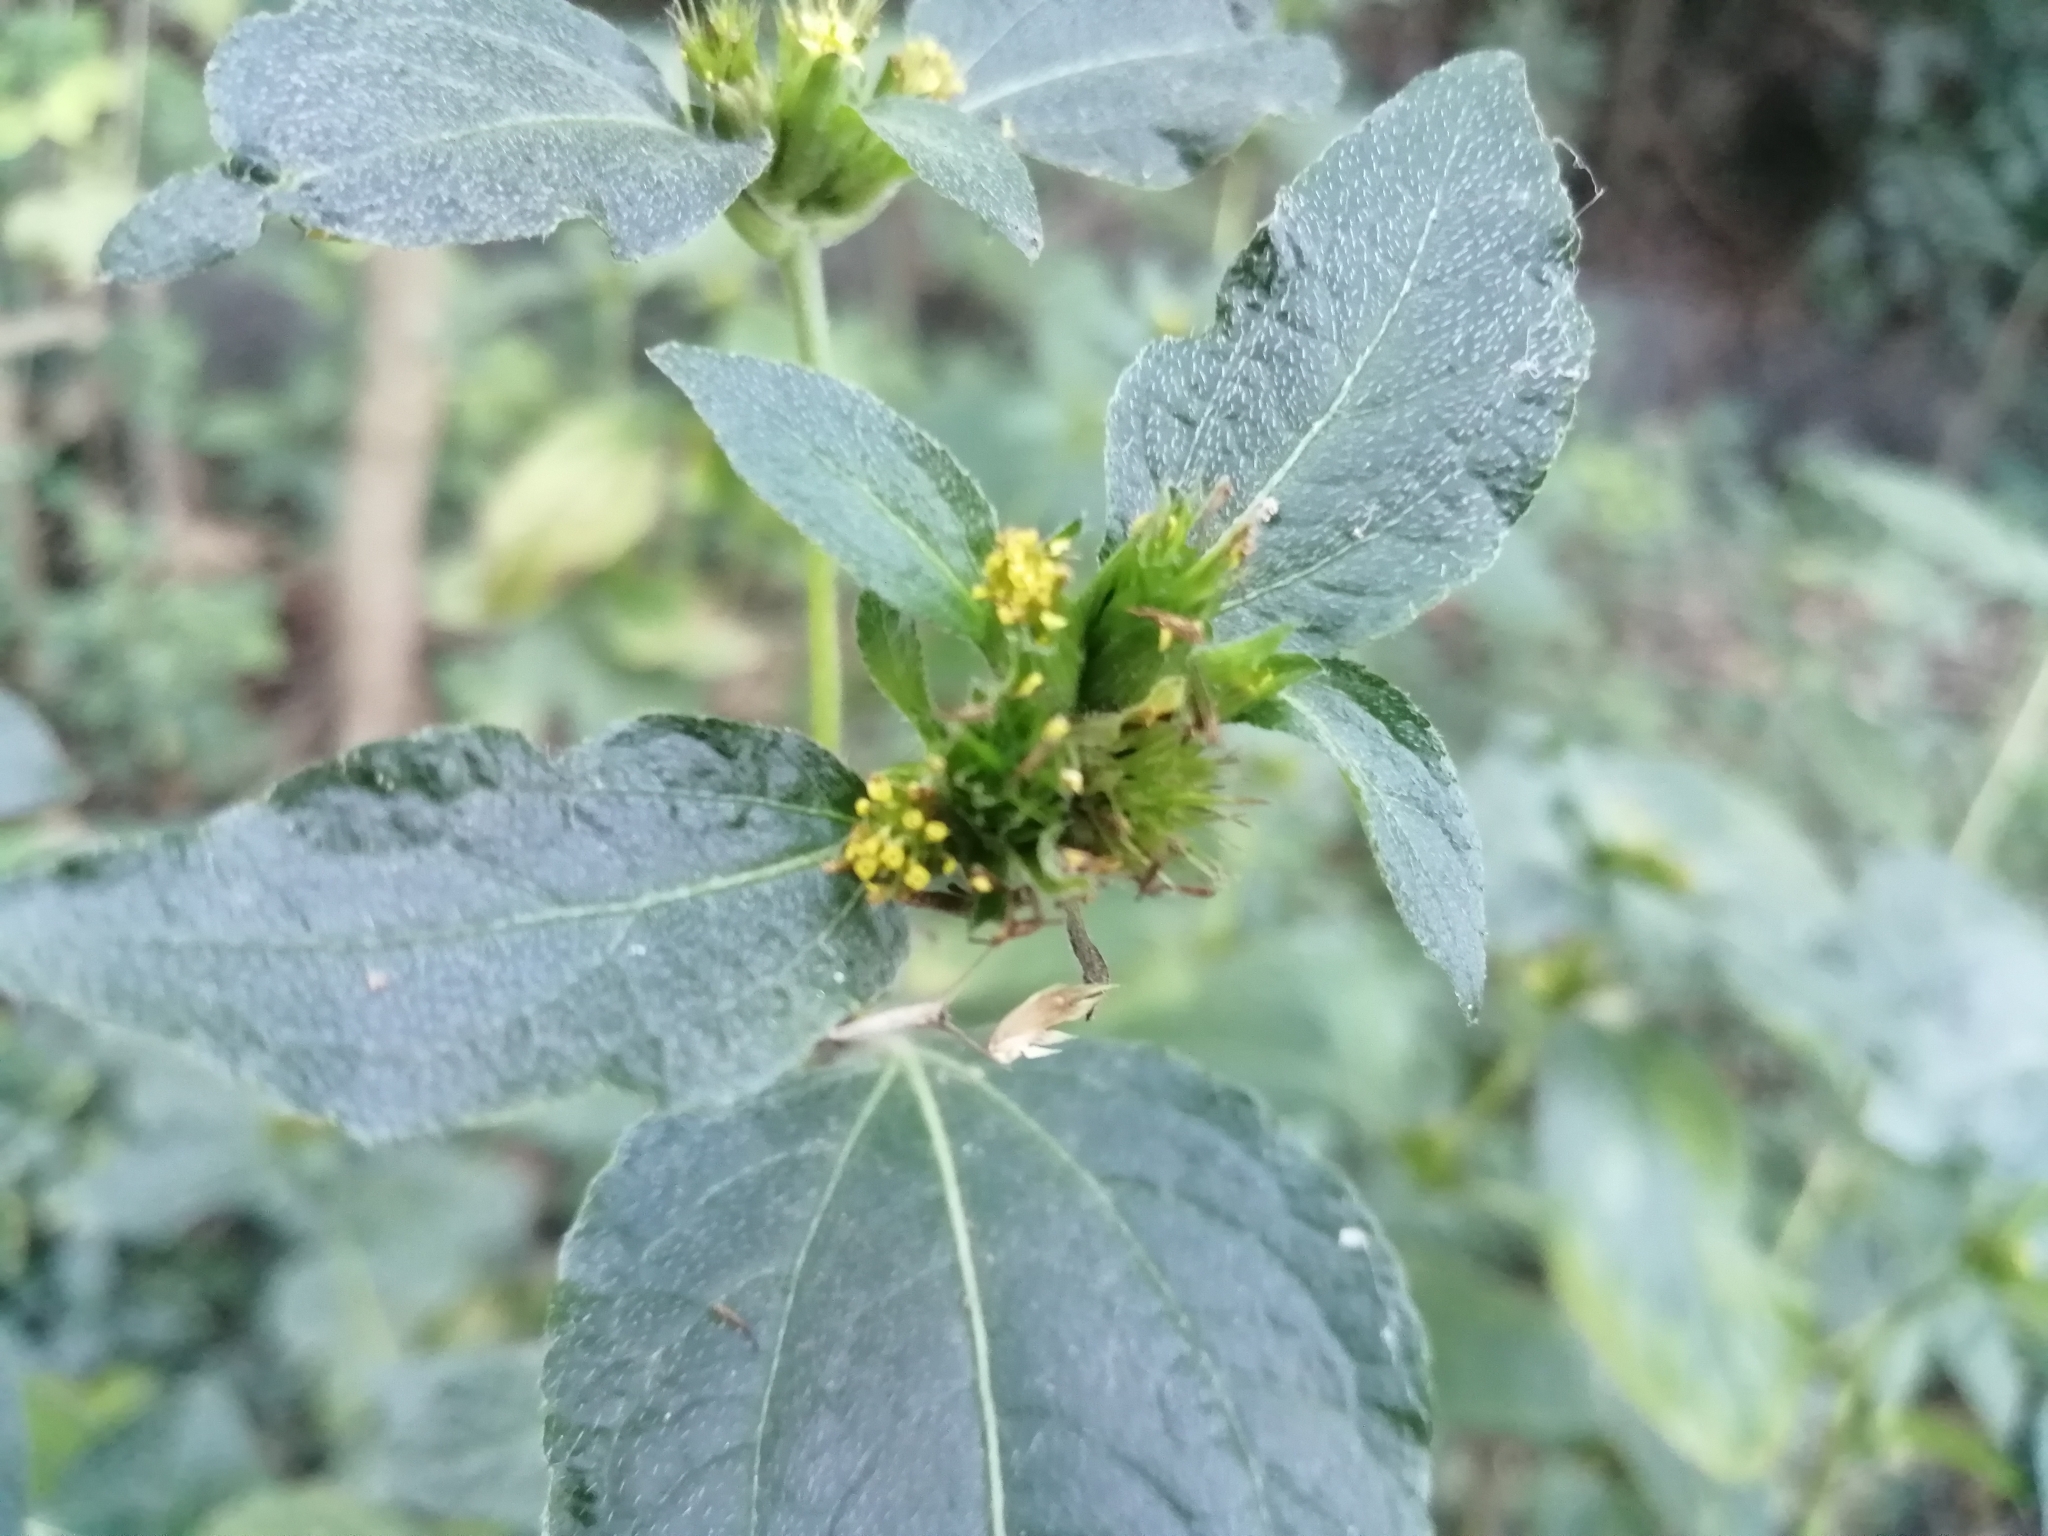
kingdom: Plantae
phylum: Tracheophyta
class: Magnoliopsida
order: Asterales
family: Asteraceae
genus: Synedrella
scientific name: Synedrella nodiflora
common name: Nodeweed
